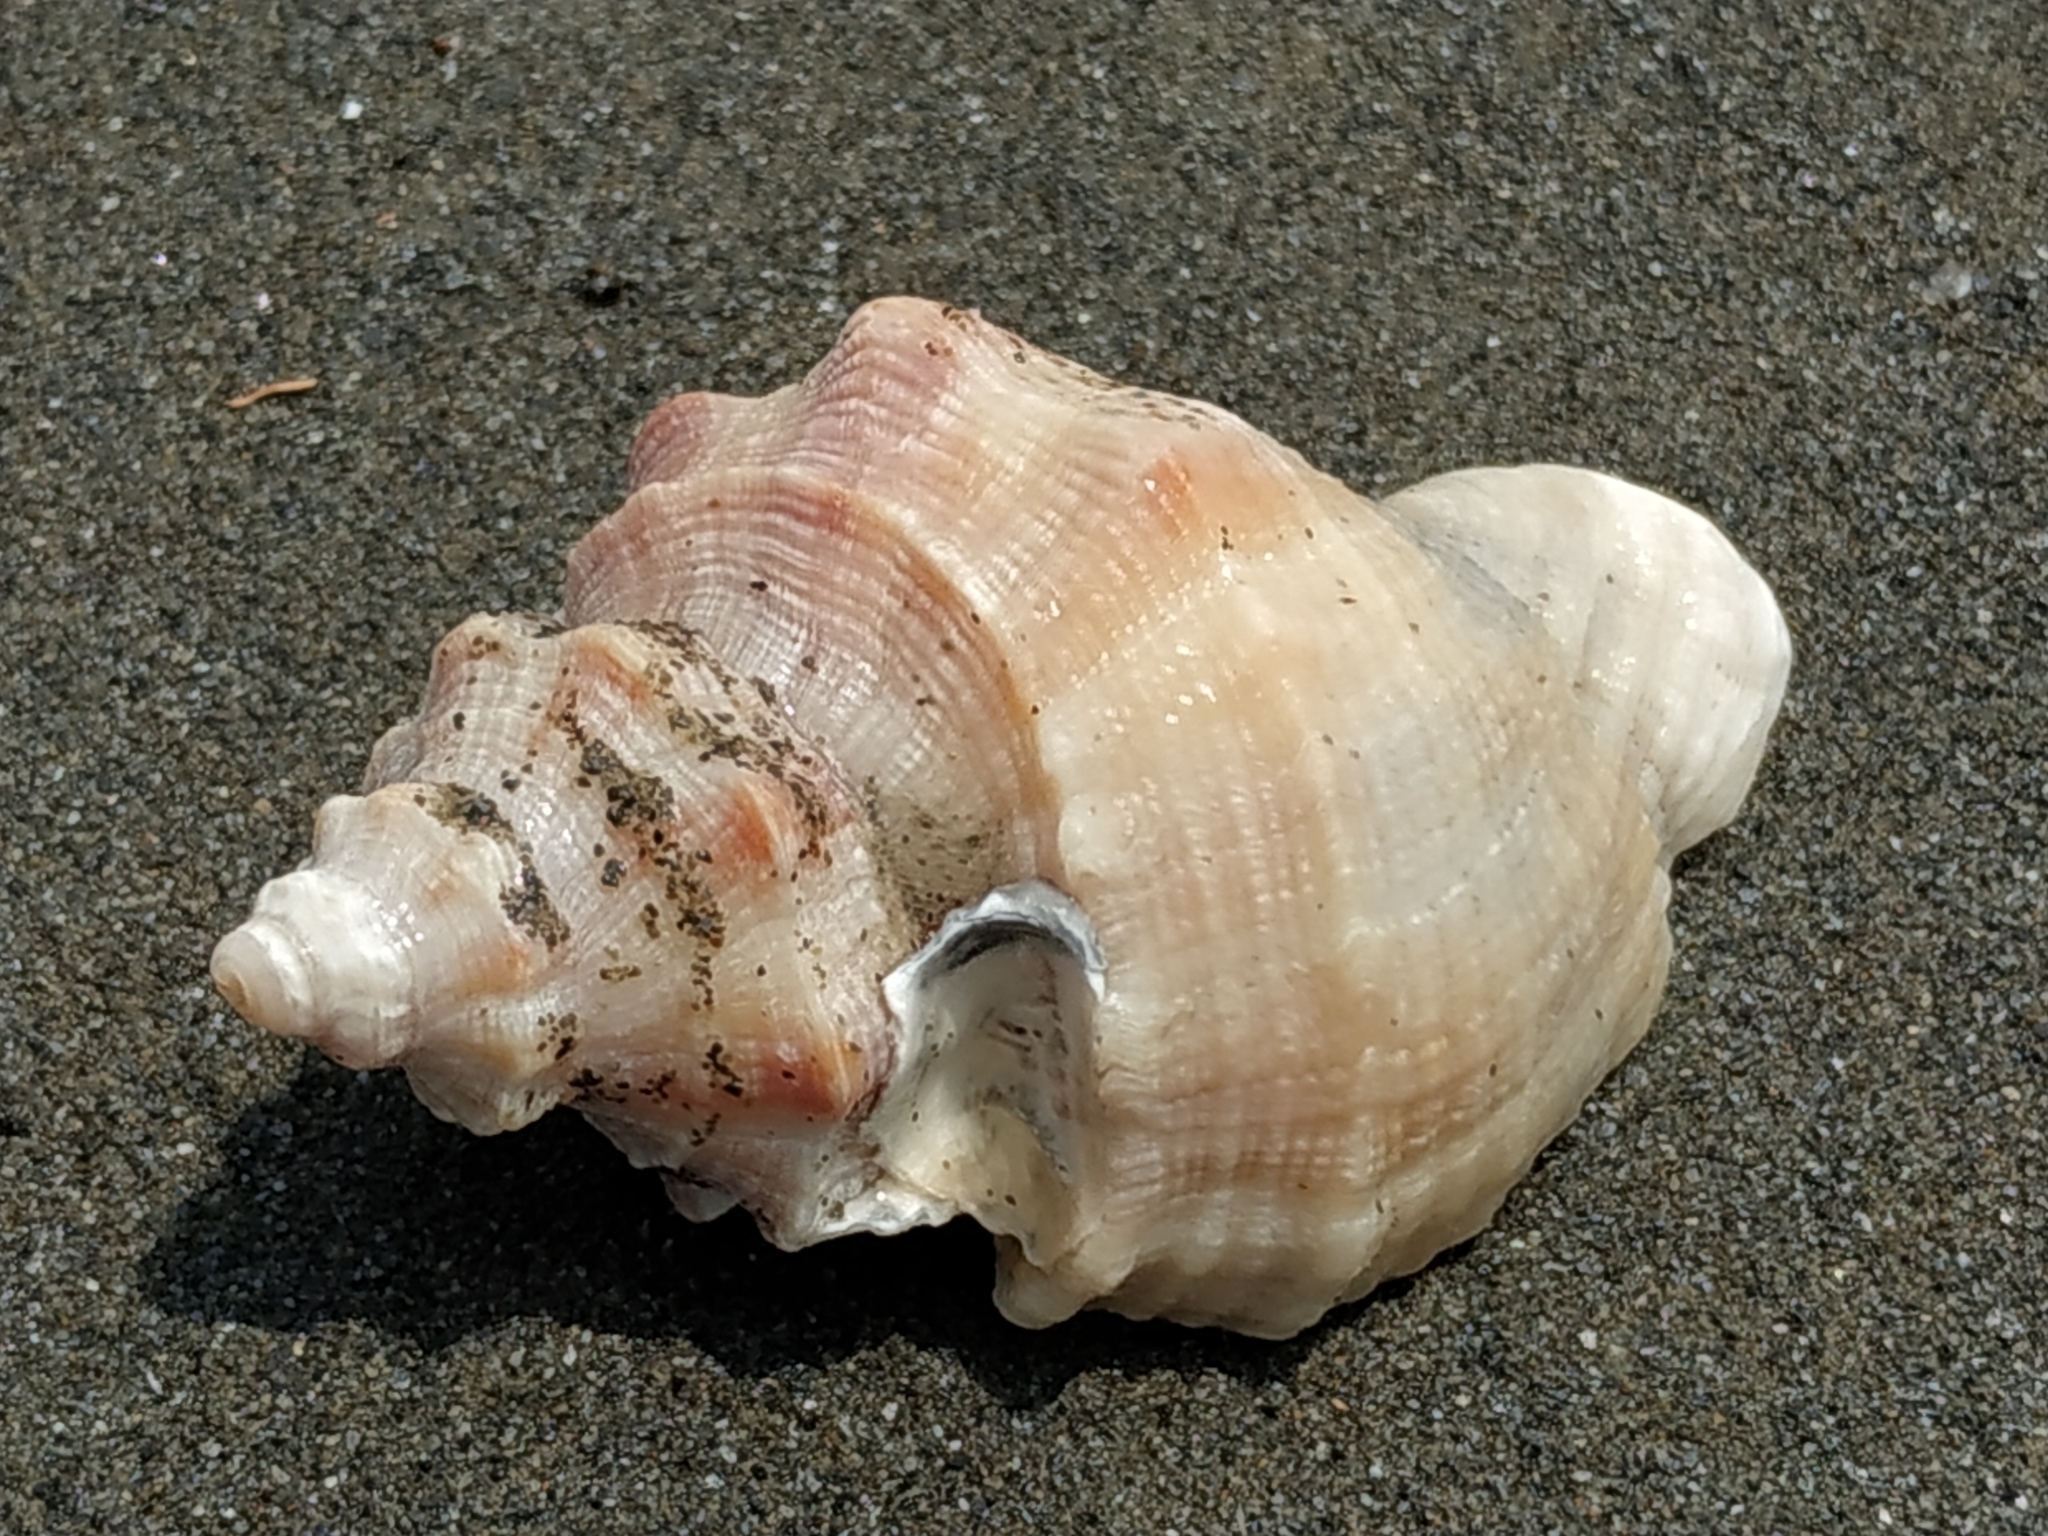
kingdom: Animalia
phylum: Mollusca
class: Gastropoda
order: Neogastropoda
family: Muricidae
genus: Indothais
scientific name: Indothais lacera
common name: Carinate rock shell
